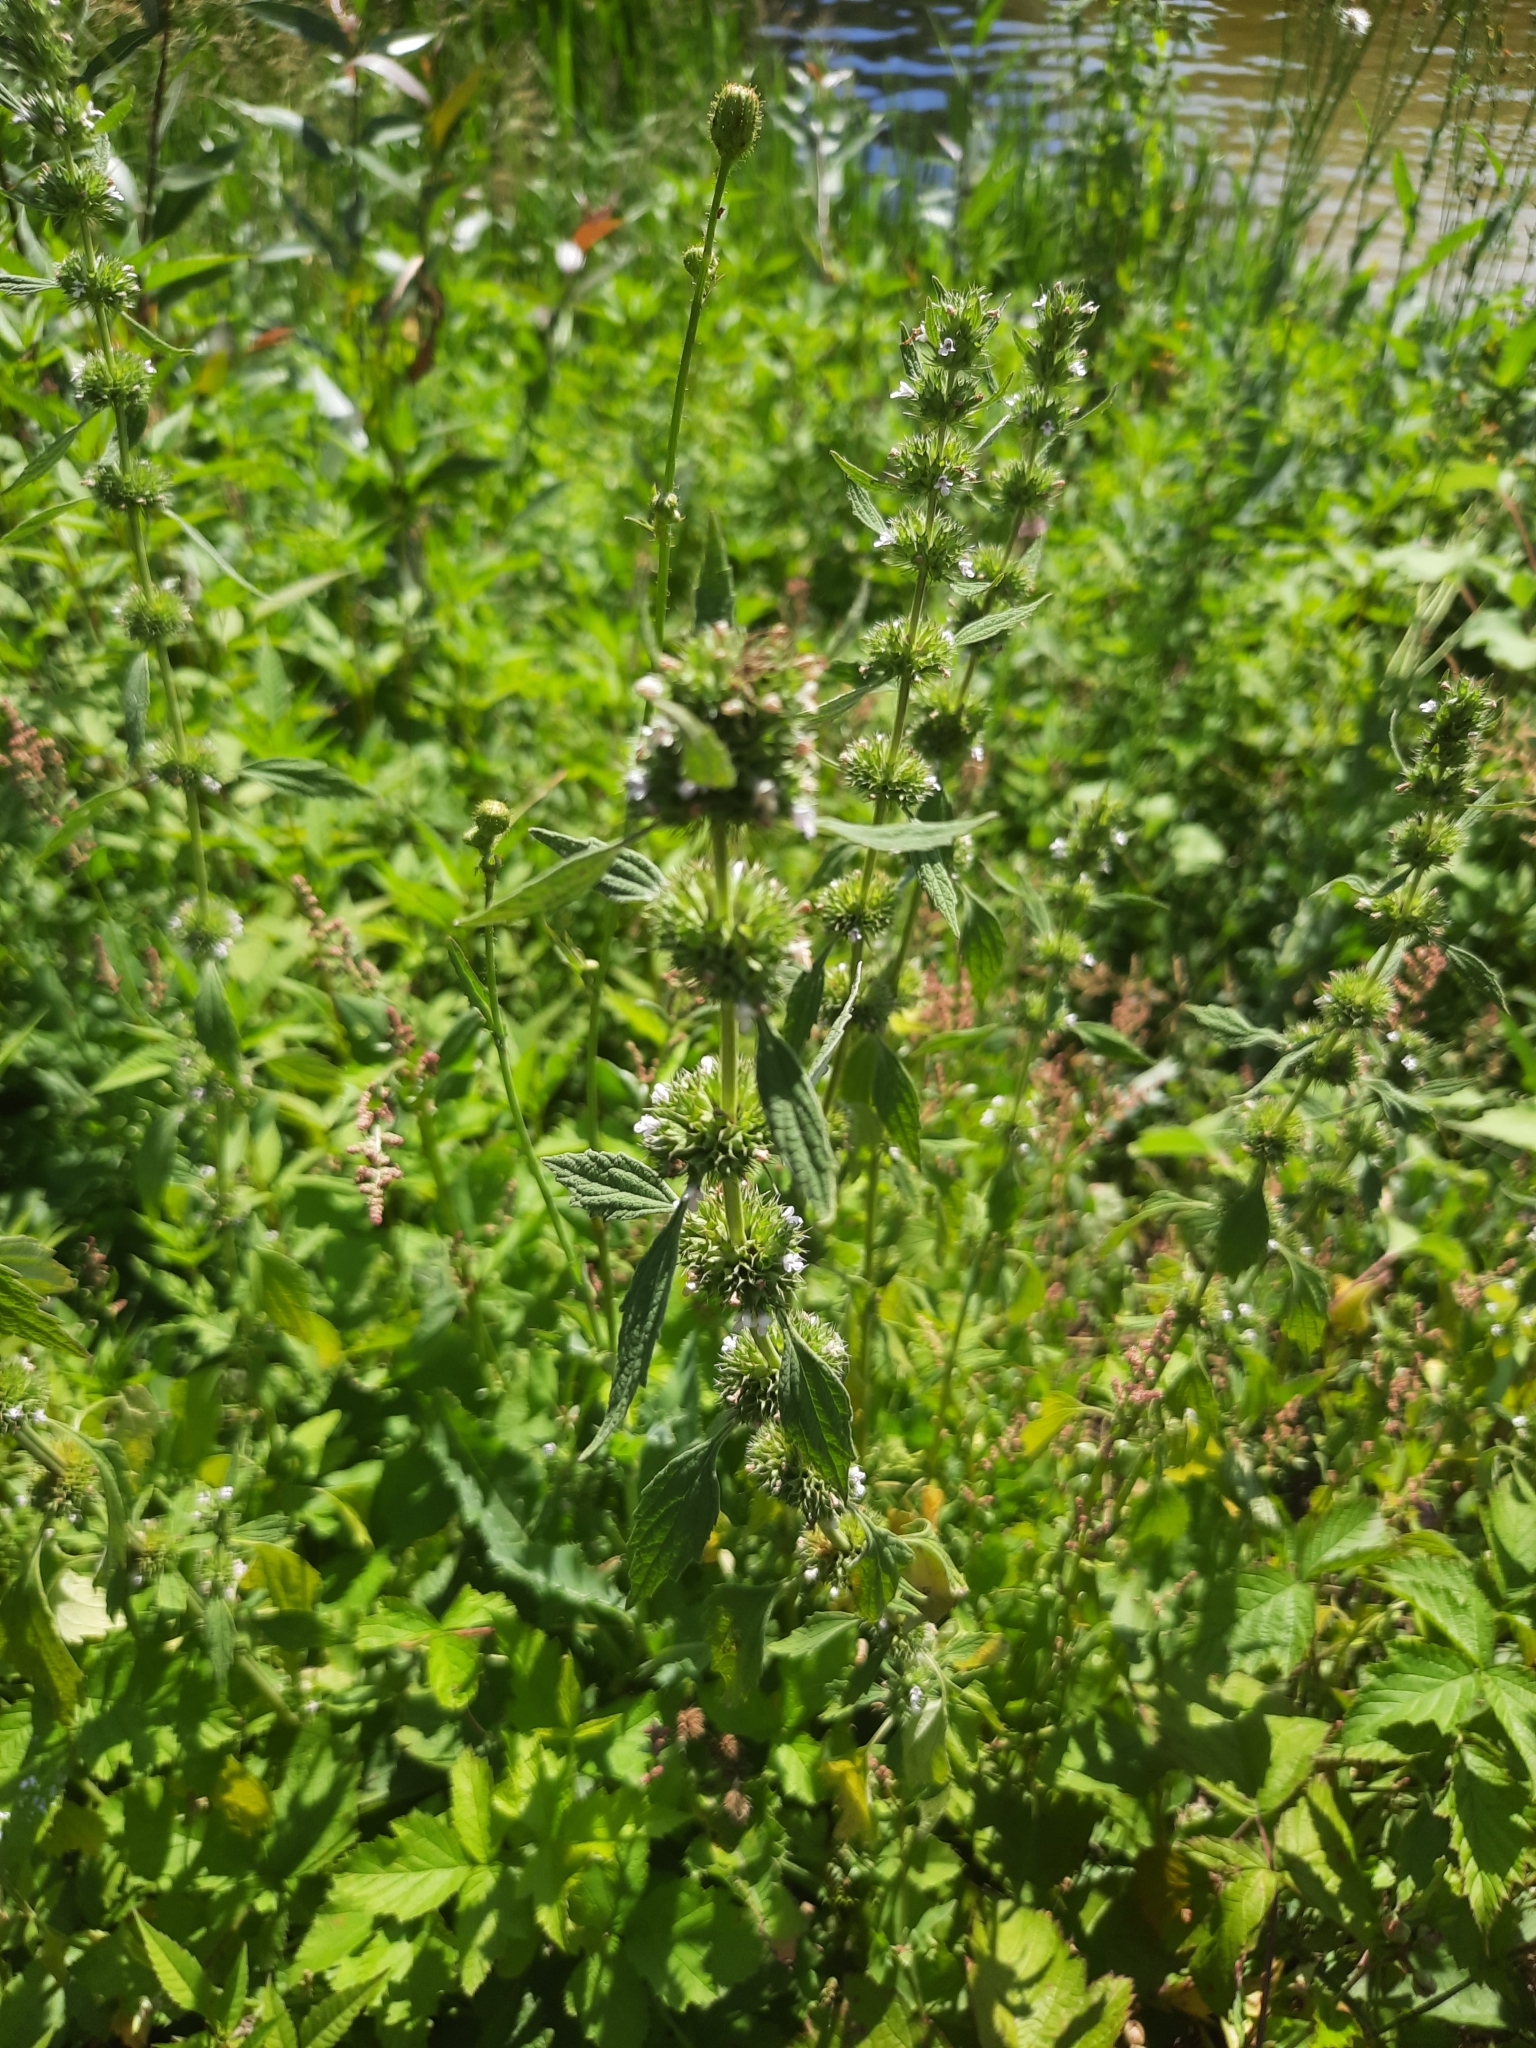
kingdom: Plantae
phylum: Tracheophyta
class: Magnoliopsida
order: Lamiales
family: Lamiaceae
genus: Chaiturus
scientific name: Chaiturus marrubiastrum
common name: Lion's tail
